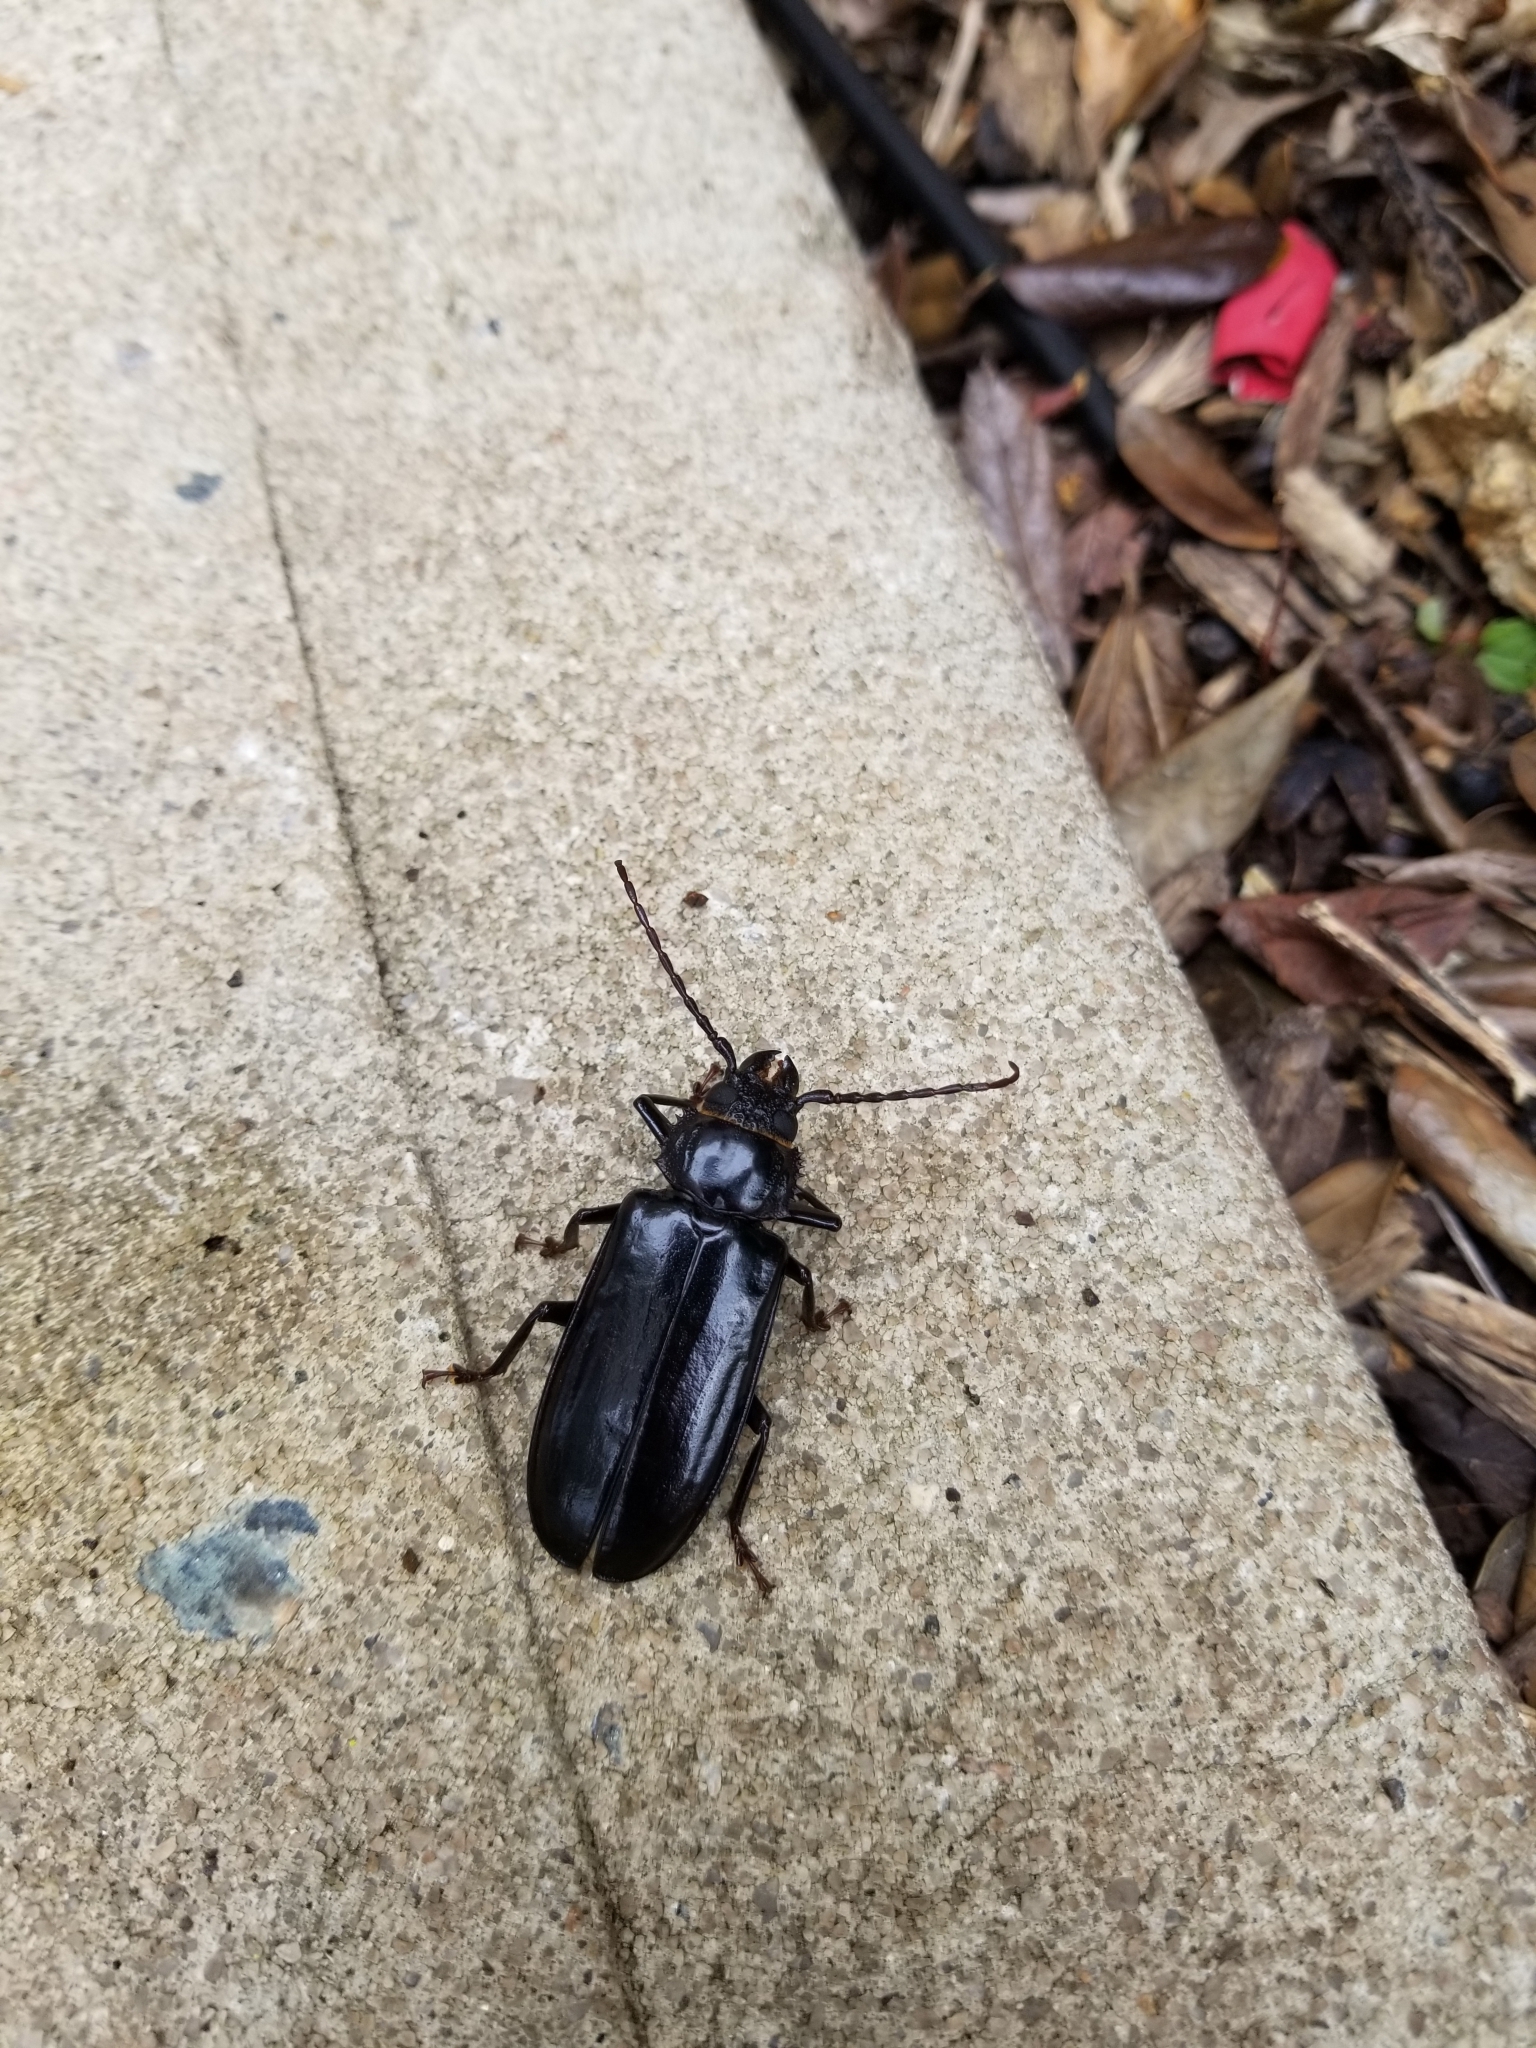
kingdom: Animalia
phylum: Arthropoda
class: Insecta
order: Coleoptera
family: Cerambycidae
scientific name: Cerambycidae
